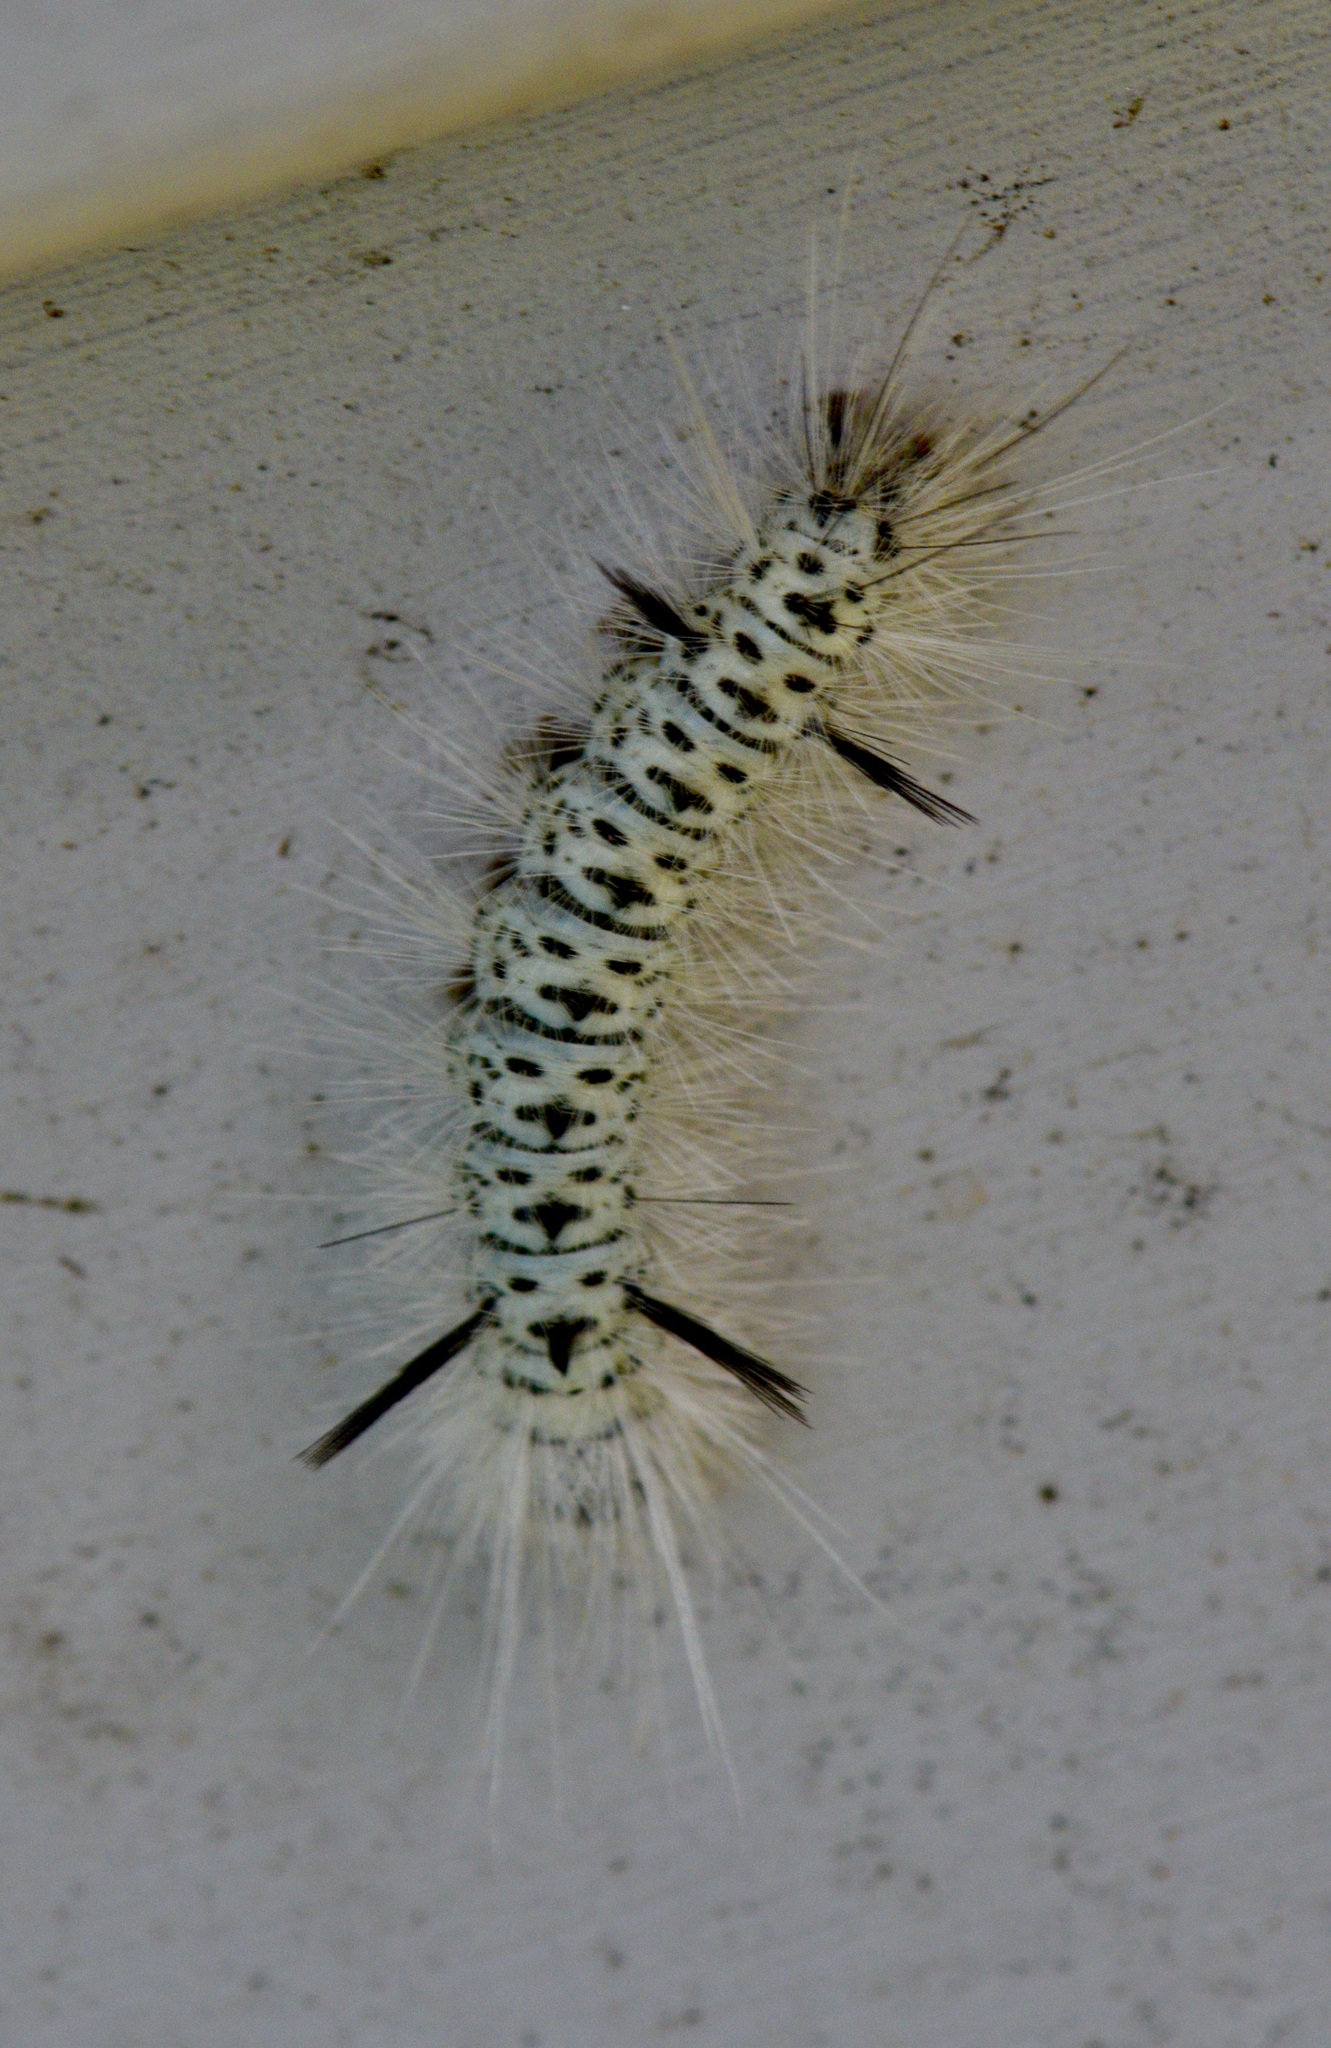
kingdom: Animalia
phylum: Arthropoda
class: Insecta
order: Lepidoptera
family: Erebidae
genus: Lophocampa
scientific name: Lophocampa caryae
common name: Hickory tussock moth
